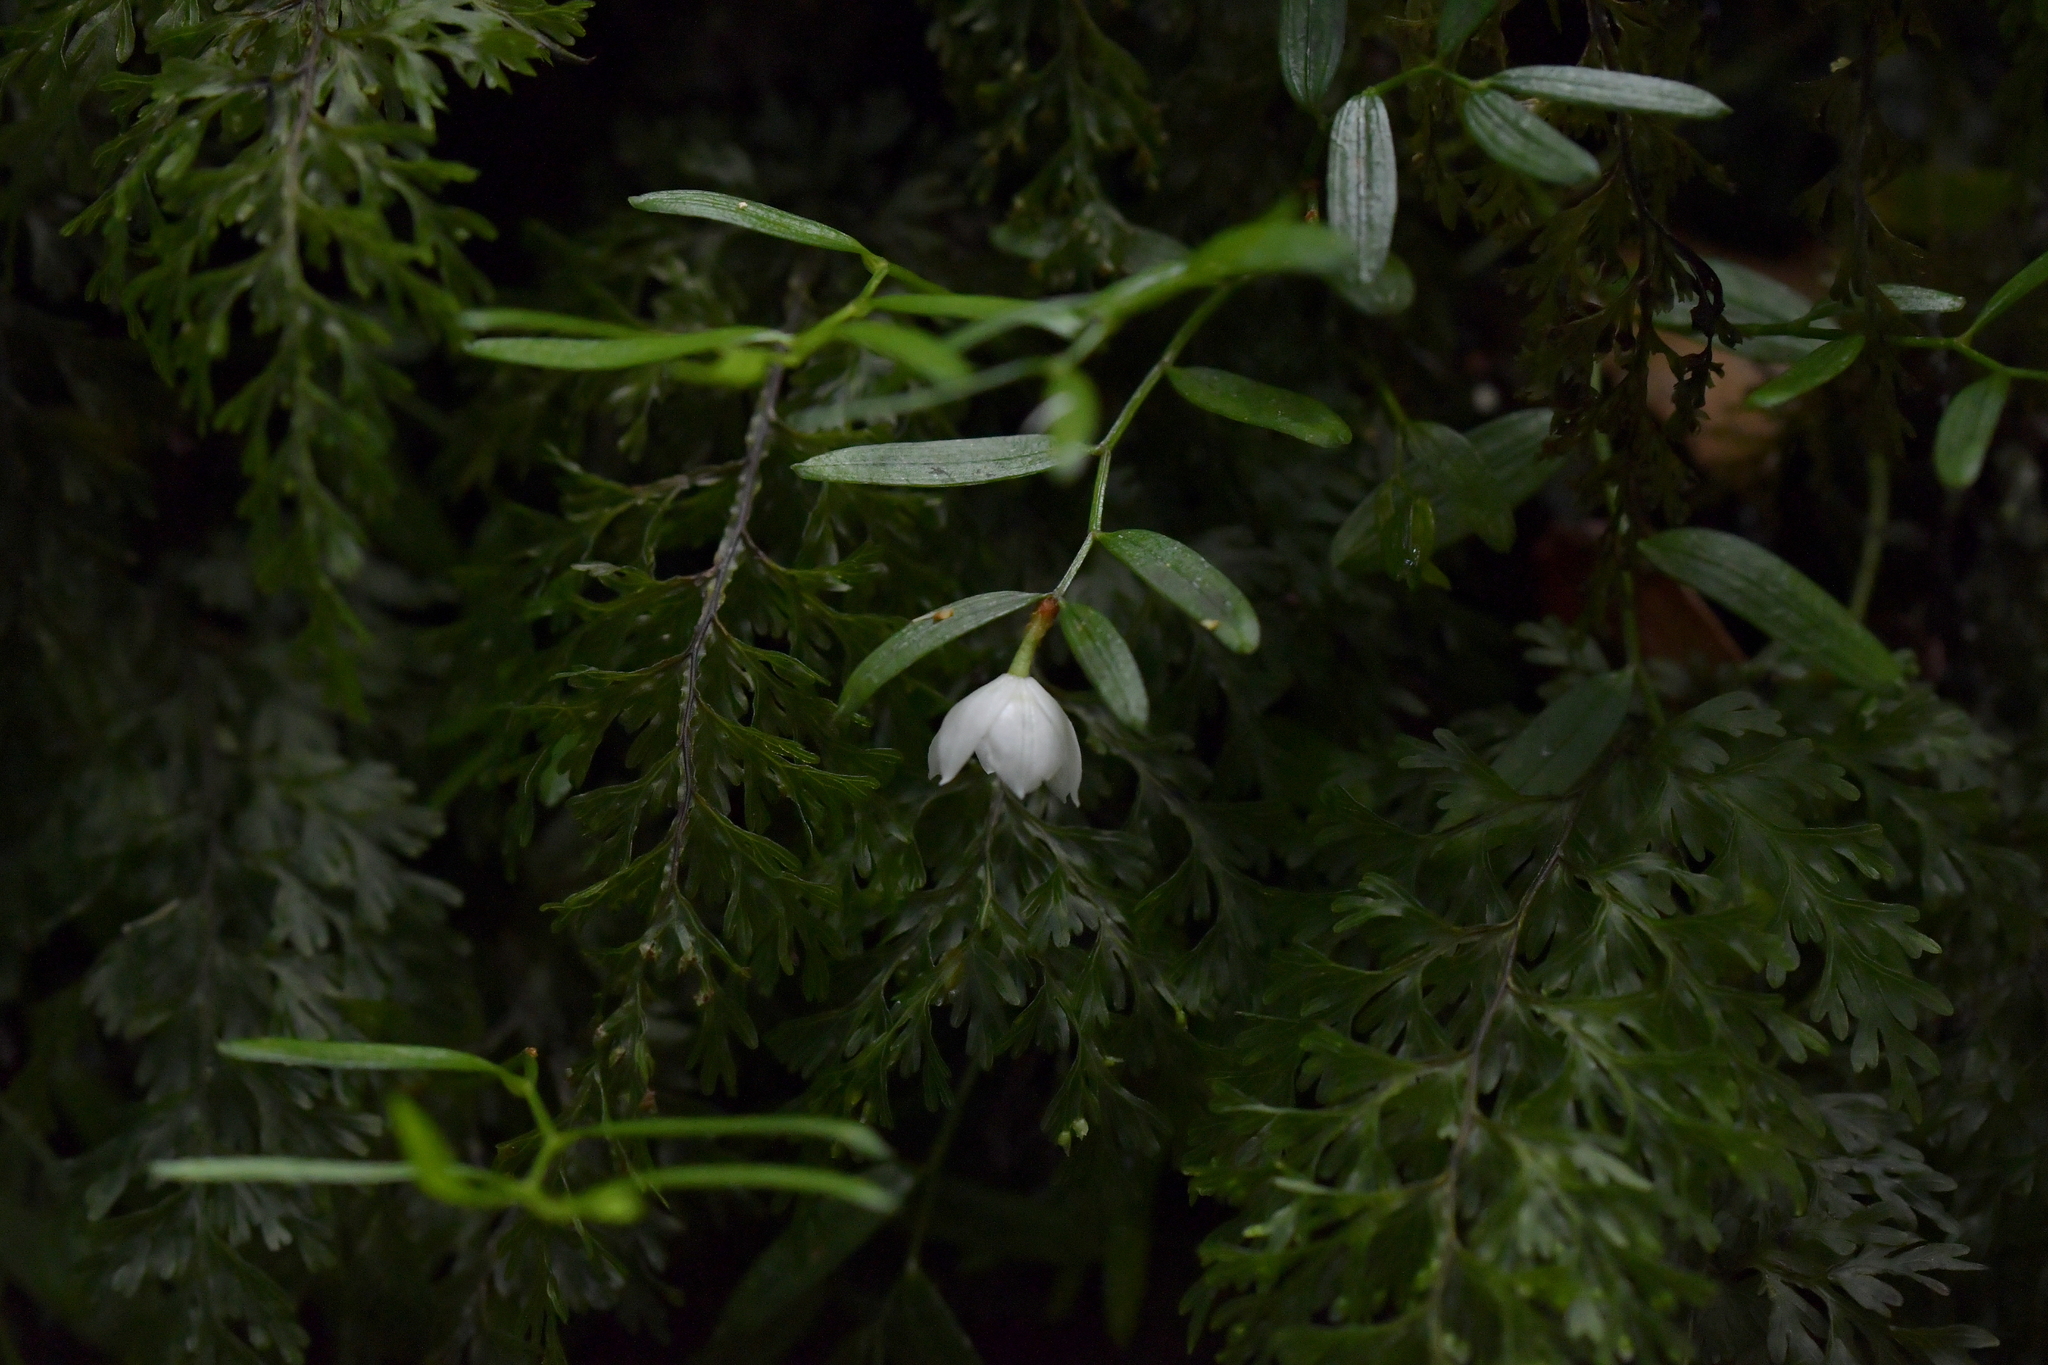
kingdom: Plantae
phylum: Tracheophyta
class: Liliopsida
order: Liliales
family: Alstroemeriaceae
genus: Luzuriaga
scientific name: Luzuriaga parviflora
